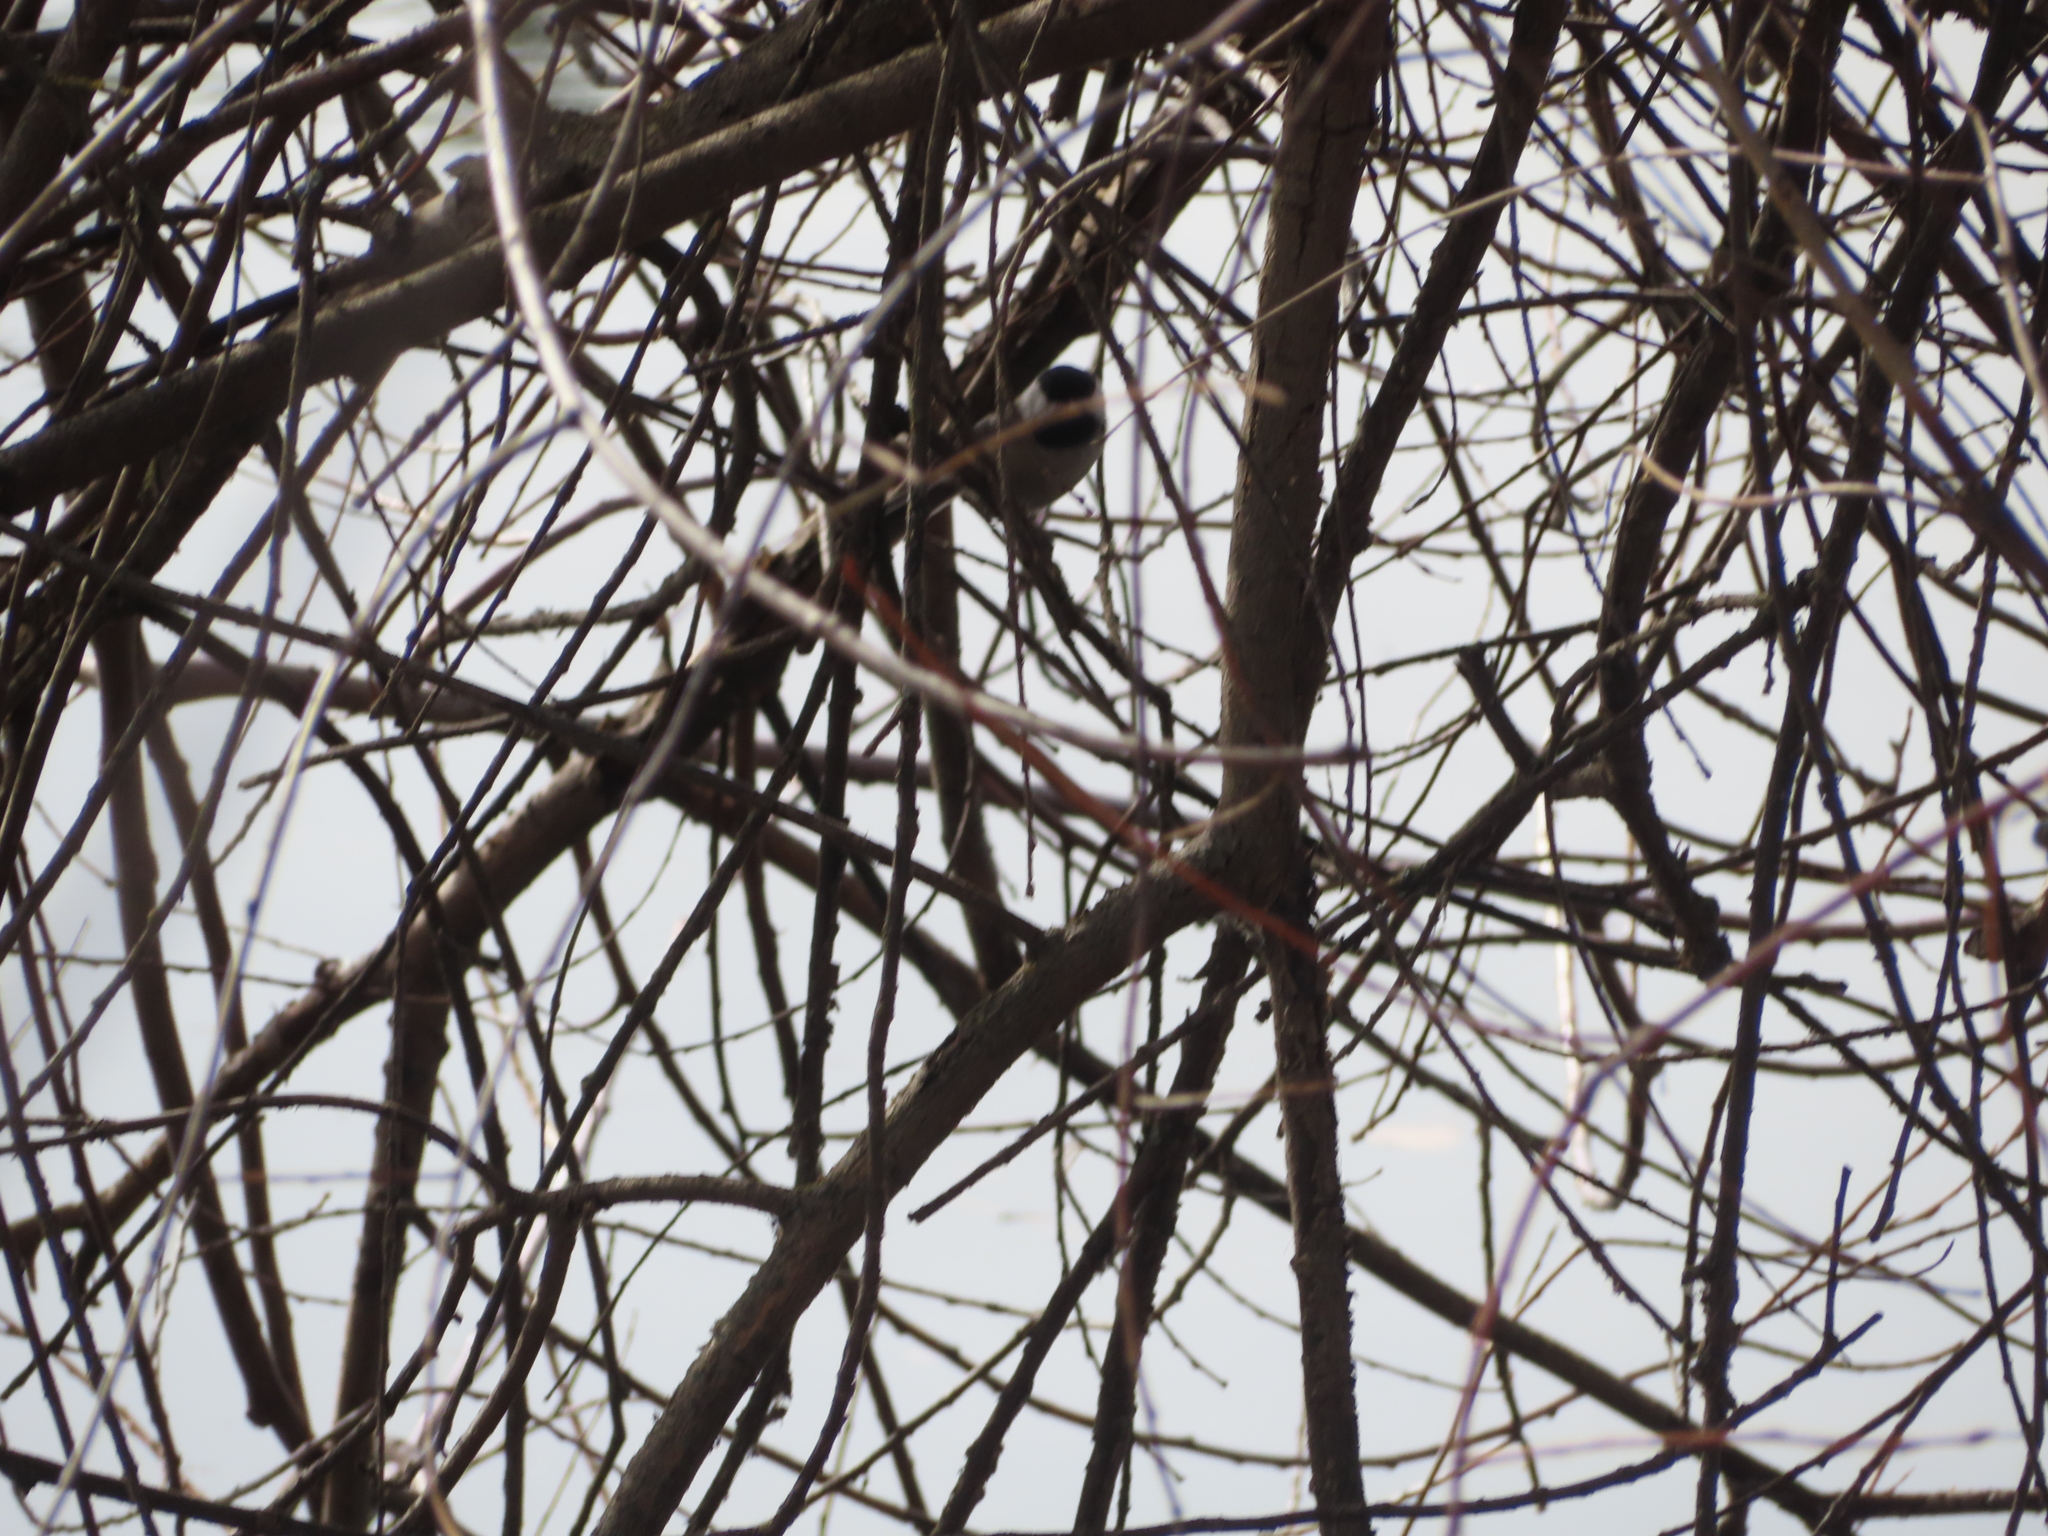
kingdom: Animalia
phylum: Chordata
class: Aves
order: Passeriformes
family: Paridae
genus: Poecile
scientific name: Poecile atricapillus
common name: Black-capped chickadee
